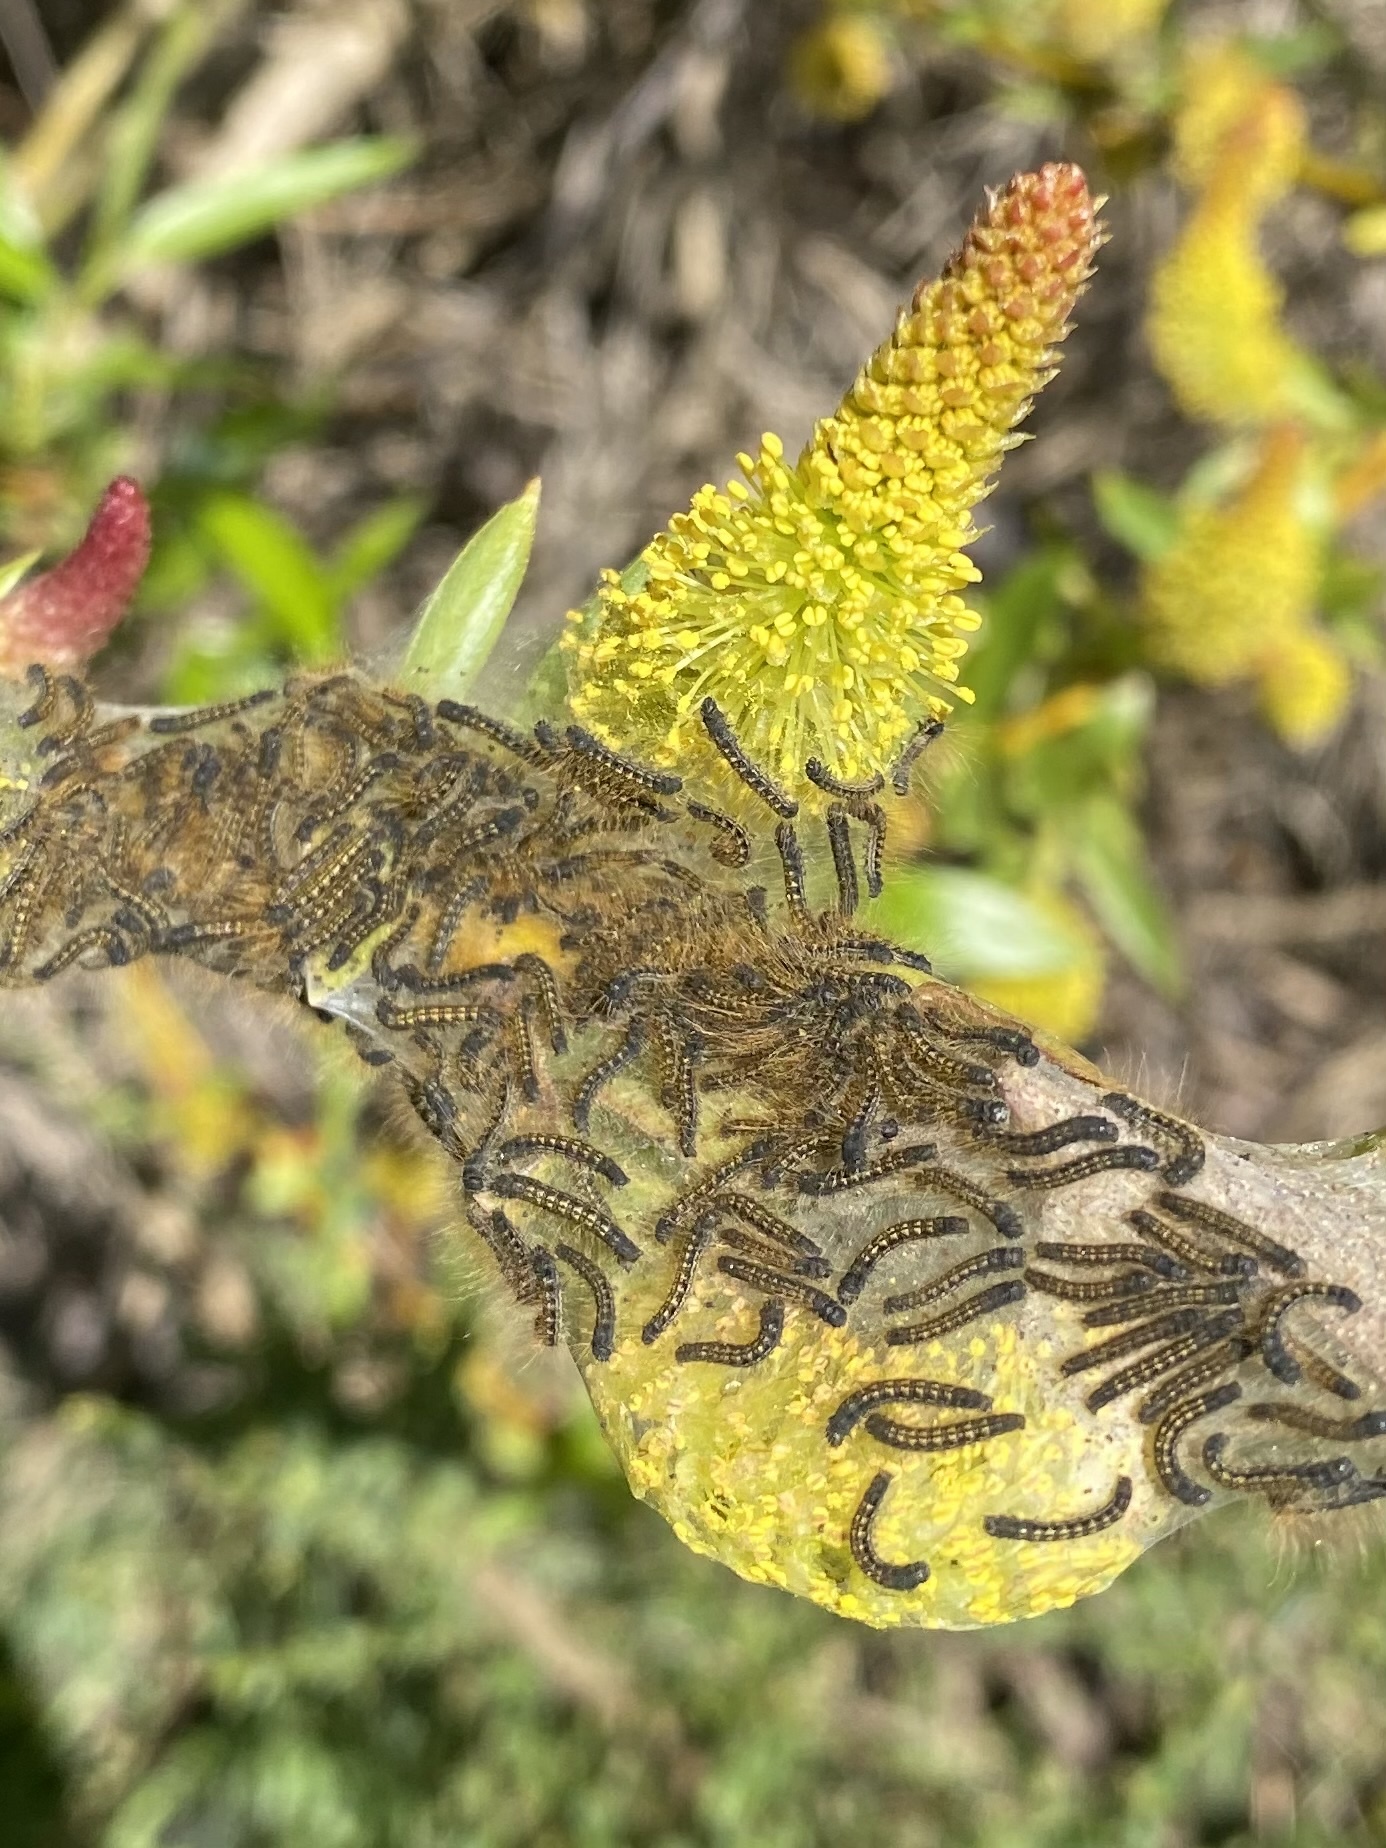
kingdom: Animalia
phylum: Arthropoda
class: Insecta
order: Lepidoptera
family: Lasiocampidae
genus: Malacosoma
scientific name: Malacosoma californica
